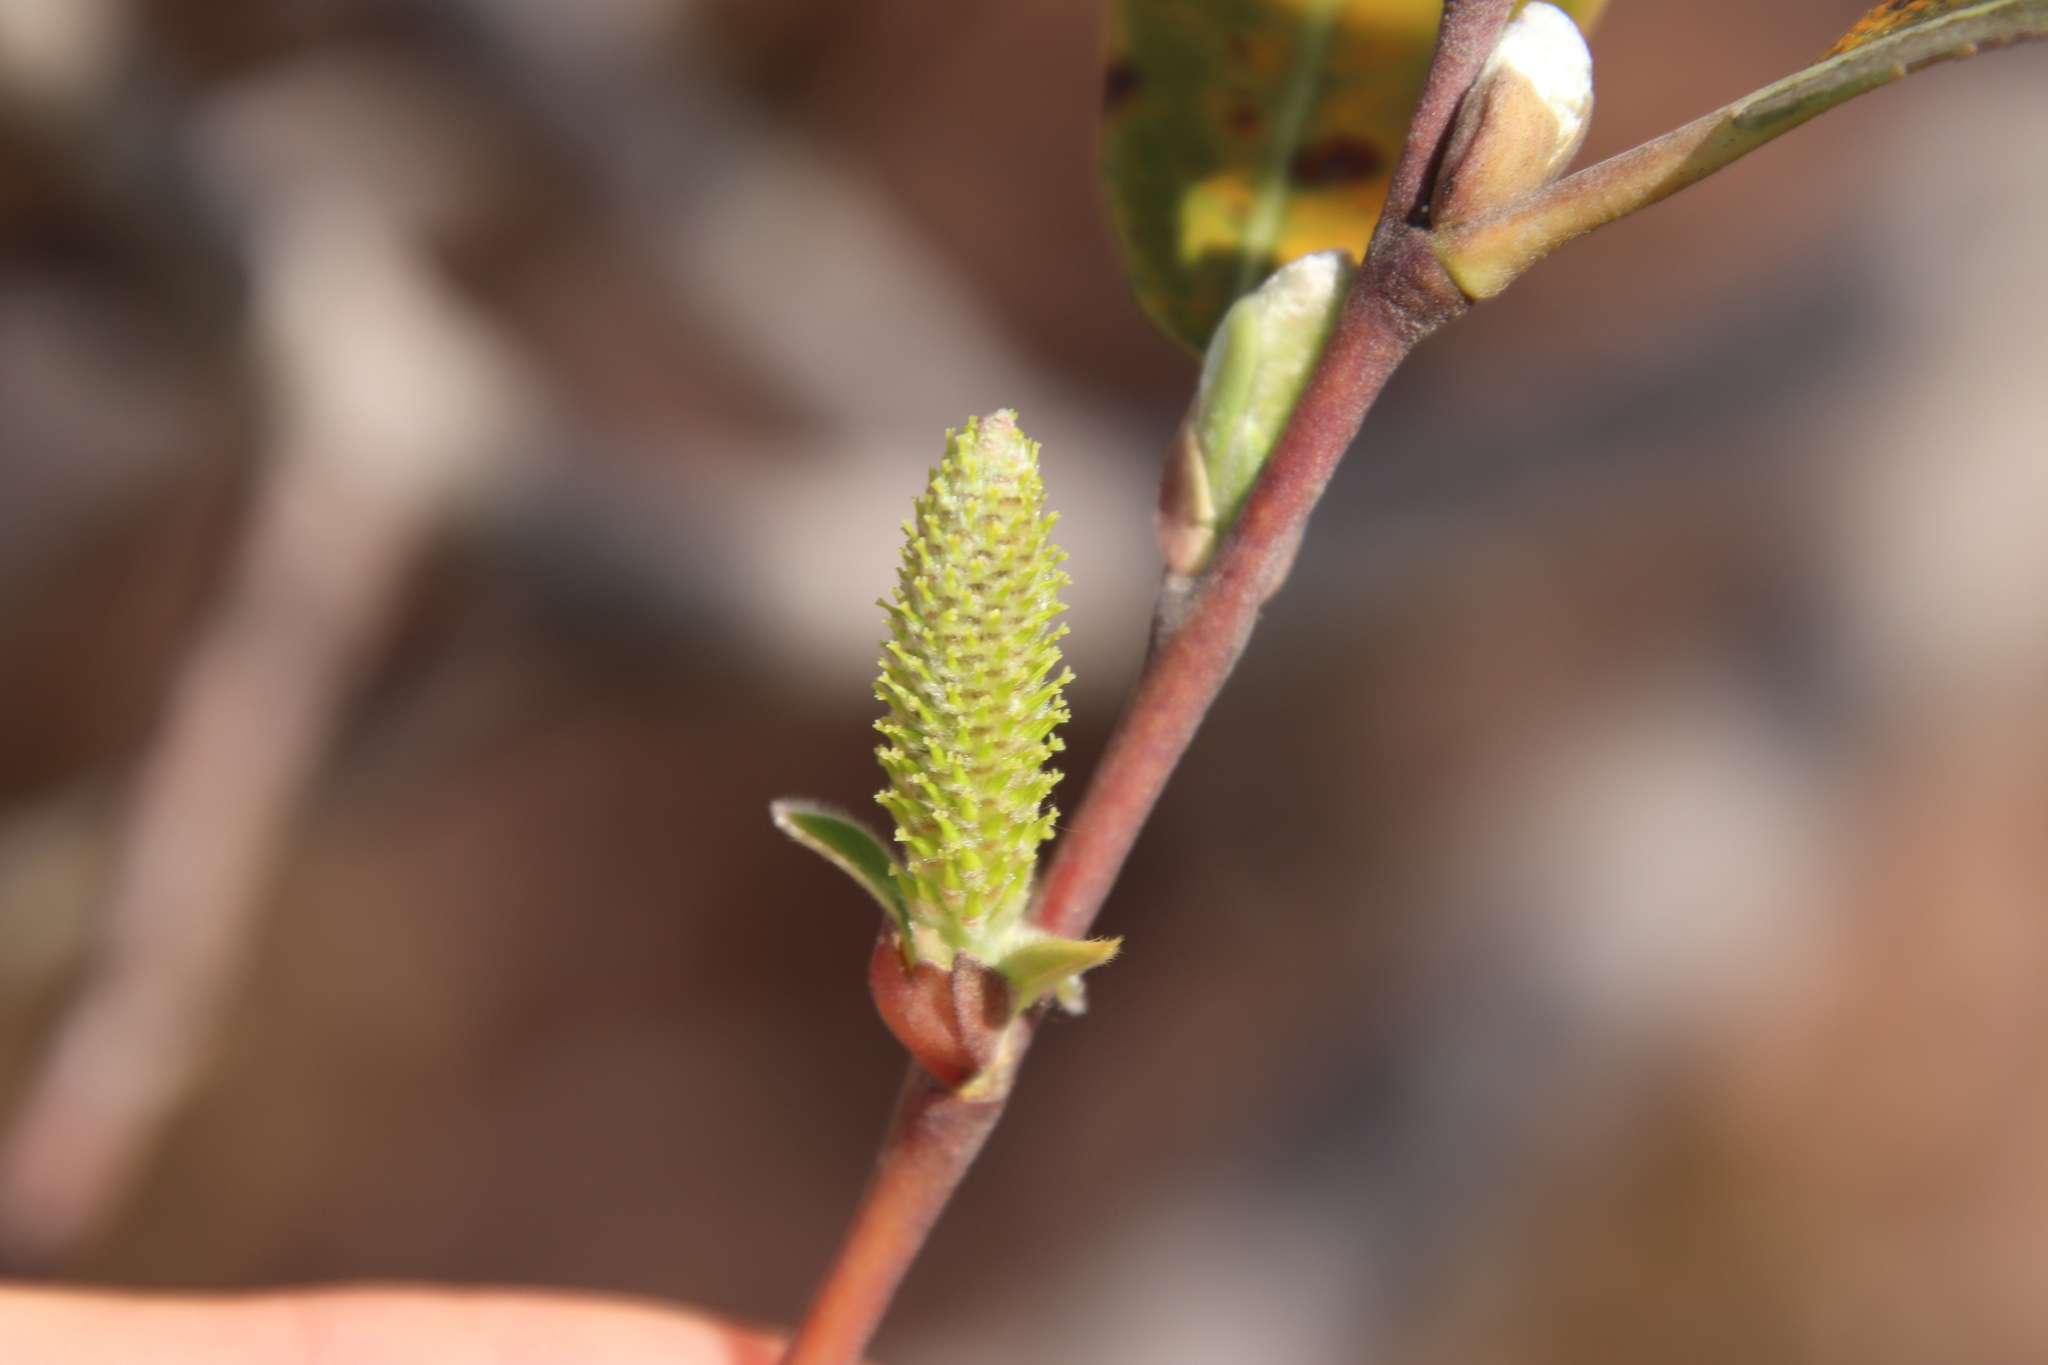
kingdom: Plantae
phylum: Tracheophyta
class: Magnoliopsida
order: Malpighiales
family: Salicaceae
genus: Salix
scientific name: Salix lasiolepis
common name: Arroyo willow
